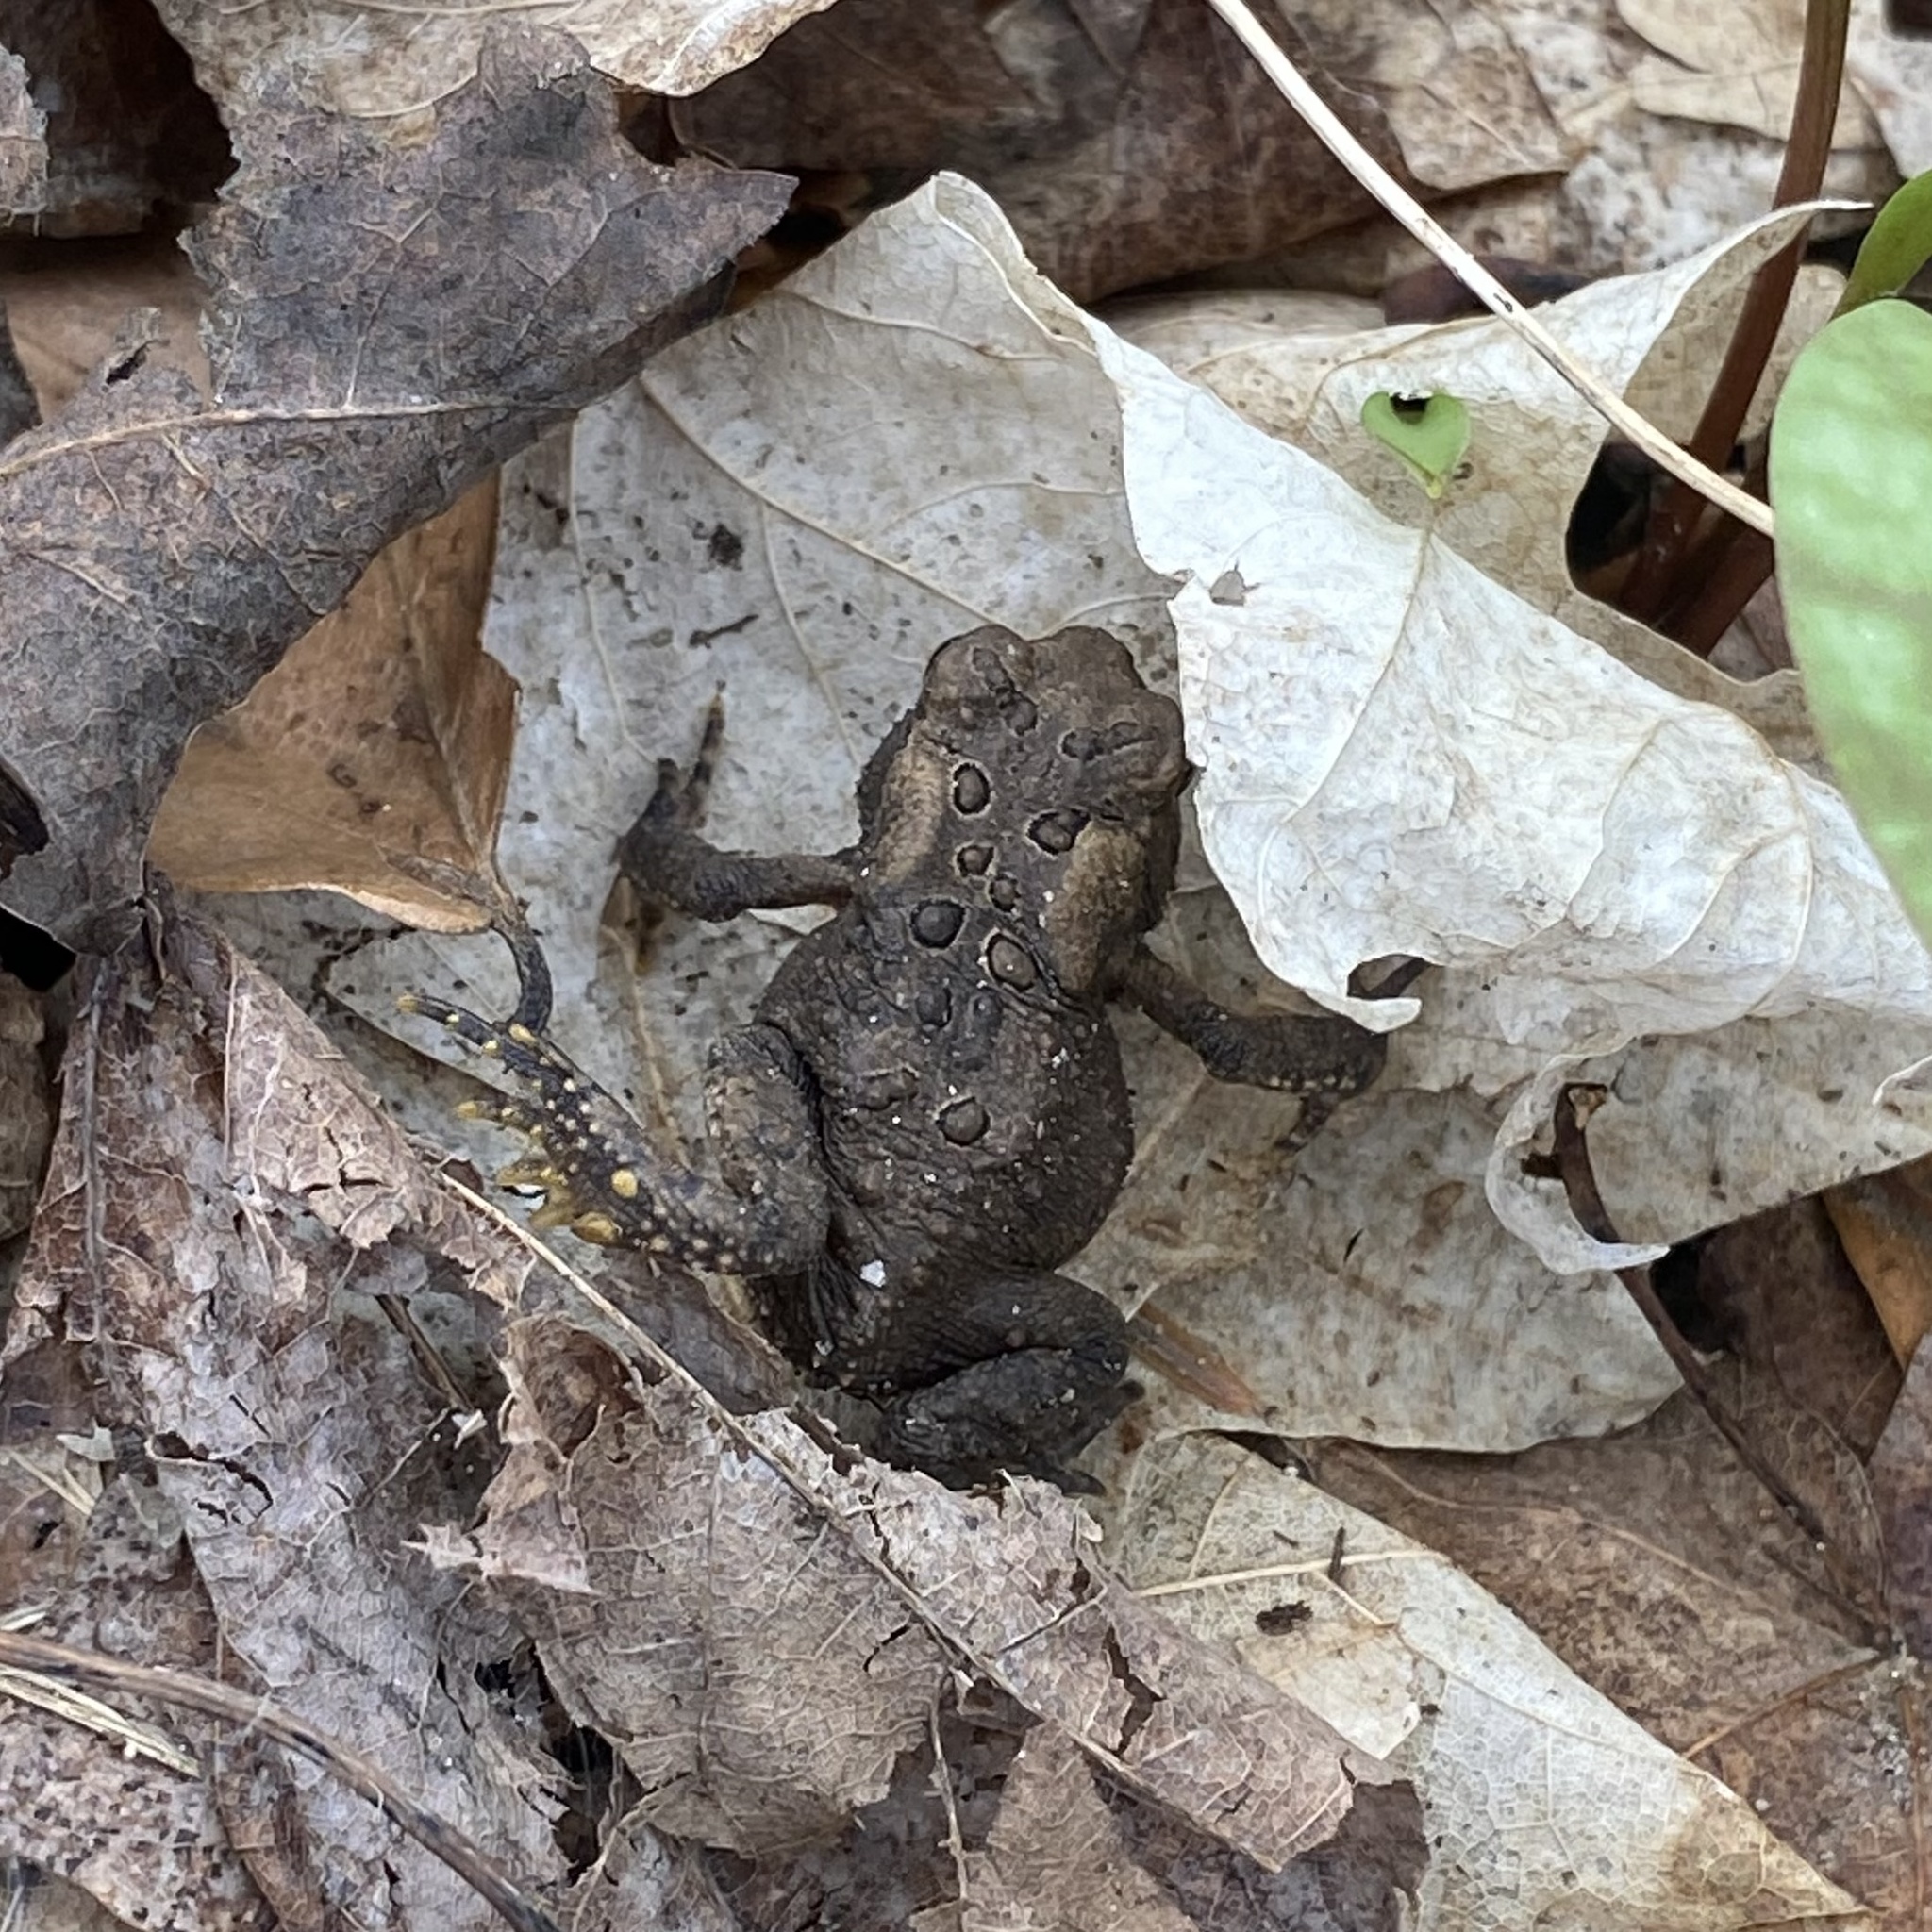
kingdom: Animalia
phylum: Chordata
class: Amphibia
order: Anura
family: Bufonidae
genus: Anaxyrus
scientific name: Anaxyrus americanus
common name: American toad
